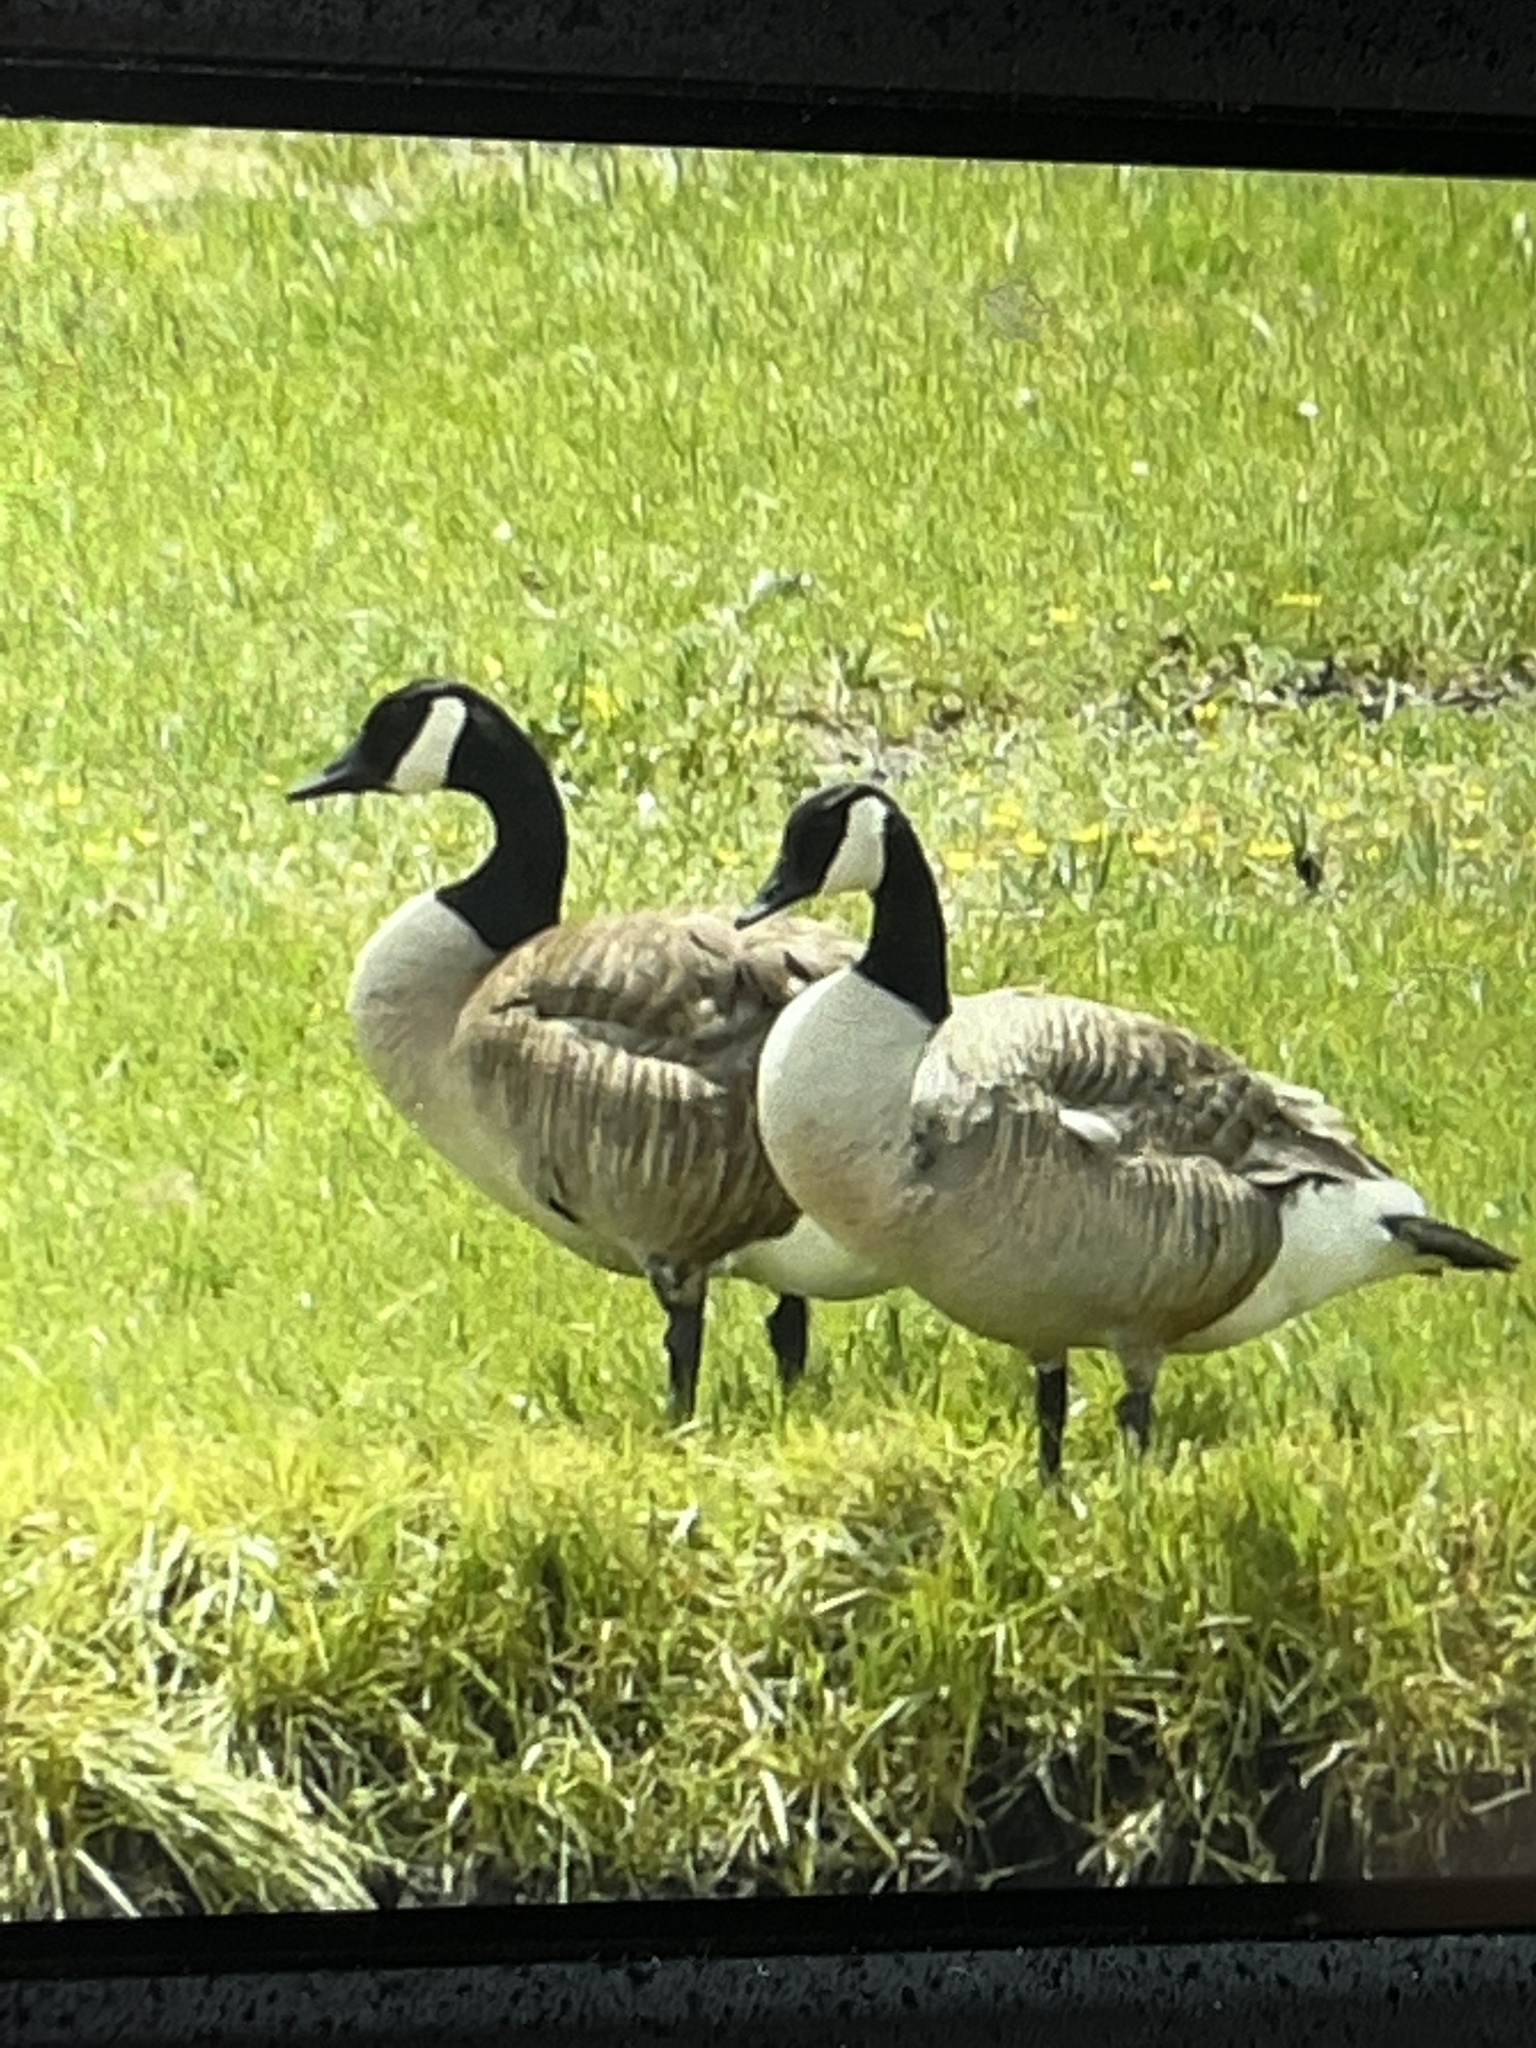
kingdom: Animalia
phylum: Chordata
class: Aves
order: Anseriformes
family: Anatidae
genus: Branta
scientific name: Branta canadensis
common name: Canada goose
